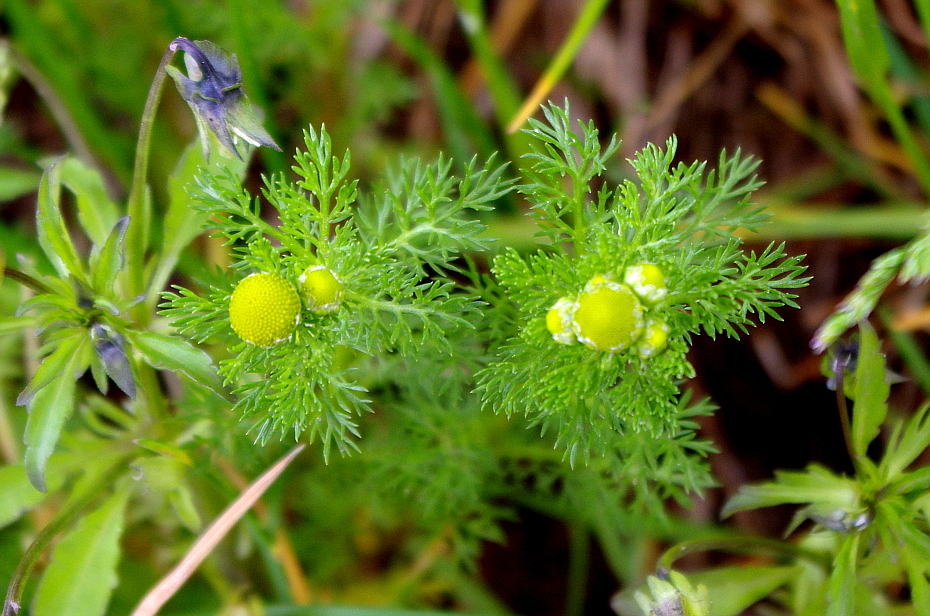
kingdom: Plantae
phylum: Tracheophyta
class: Magnoliopsida
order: Asterales
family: Asteraceae
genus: Matricaria
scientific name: Matricaria discoidea
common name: Disc mayweed
